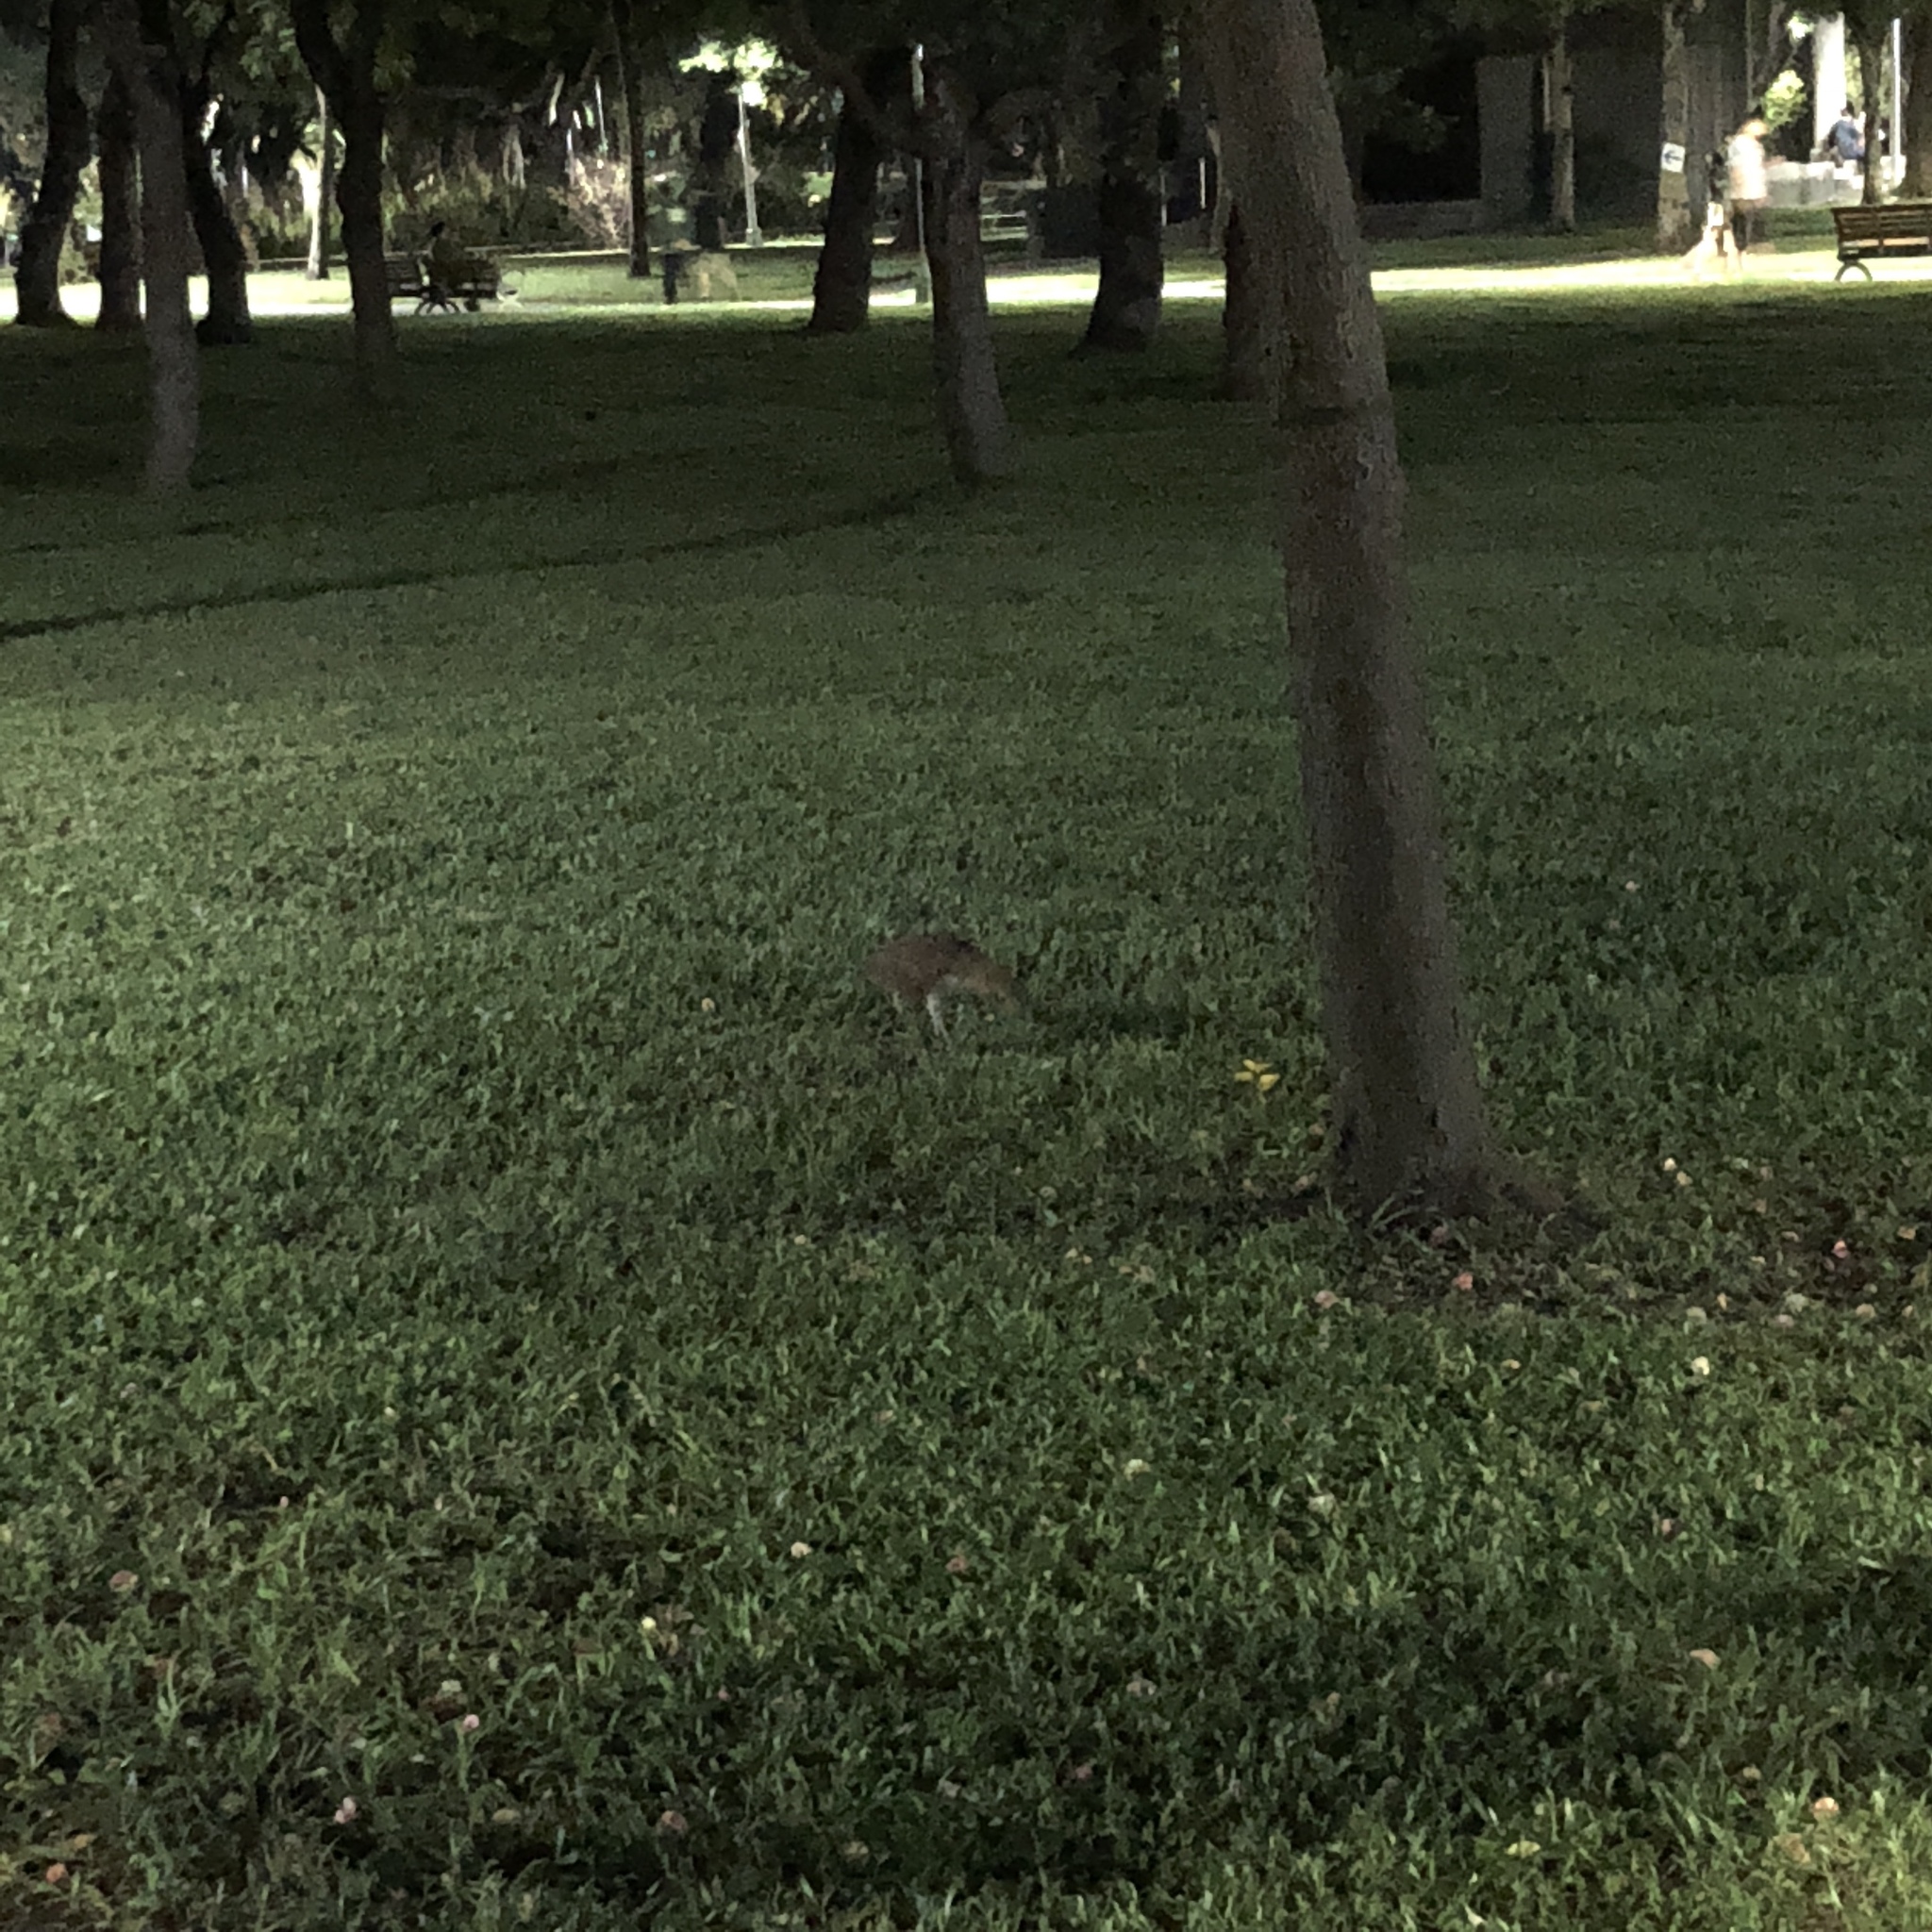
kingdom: Animalia
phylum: Chordata
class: Aves
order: Pelecaniformes
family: Ardeidae
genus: Gorsachius
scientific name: Gorsachius melanolophus
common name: Malayan night heron
